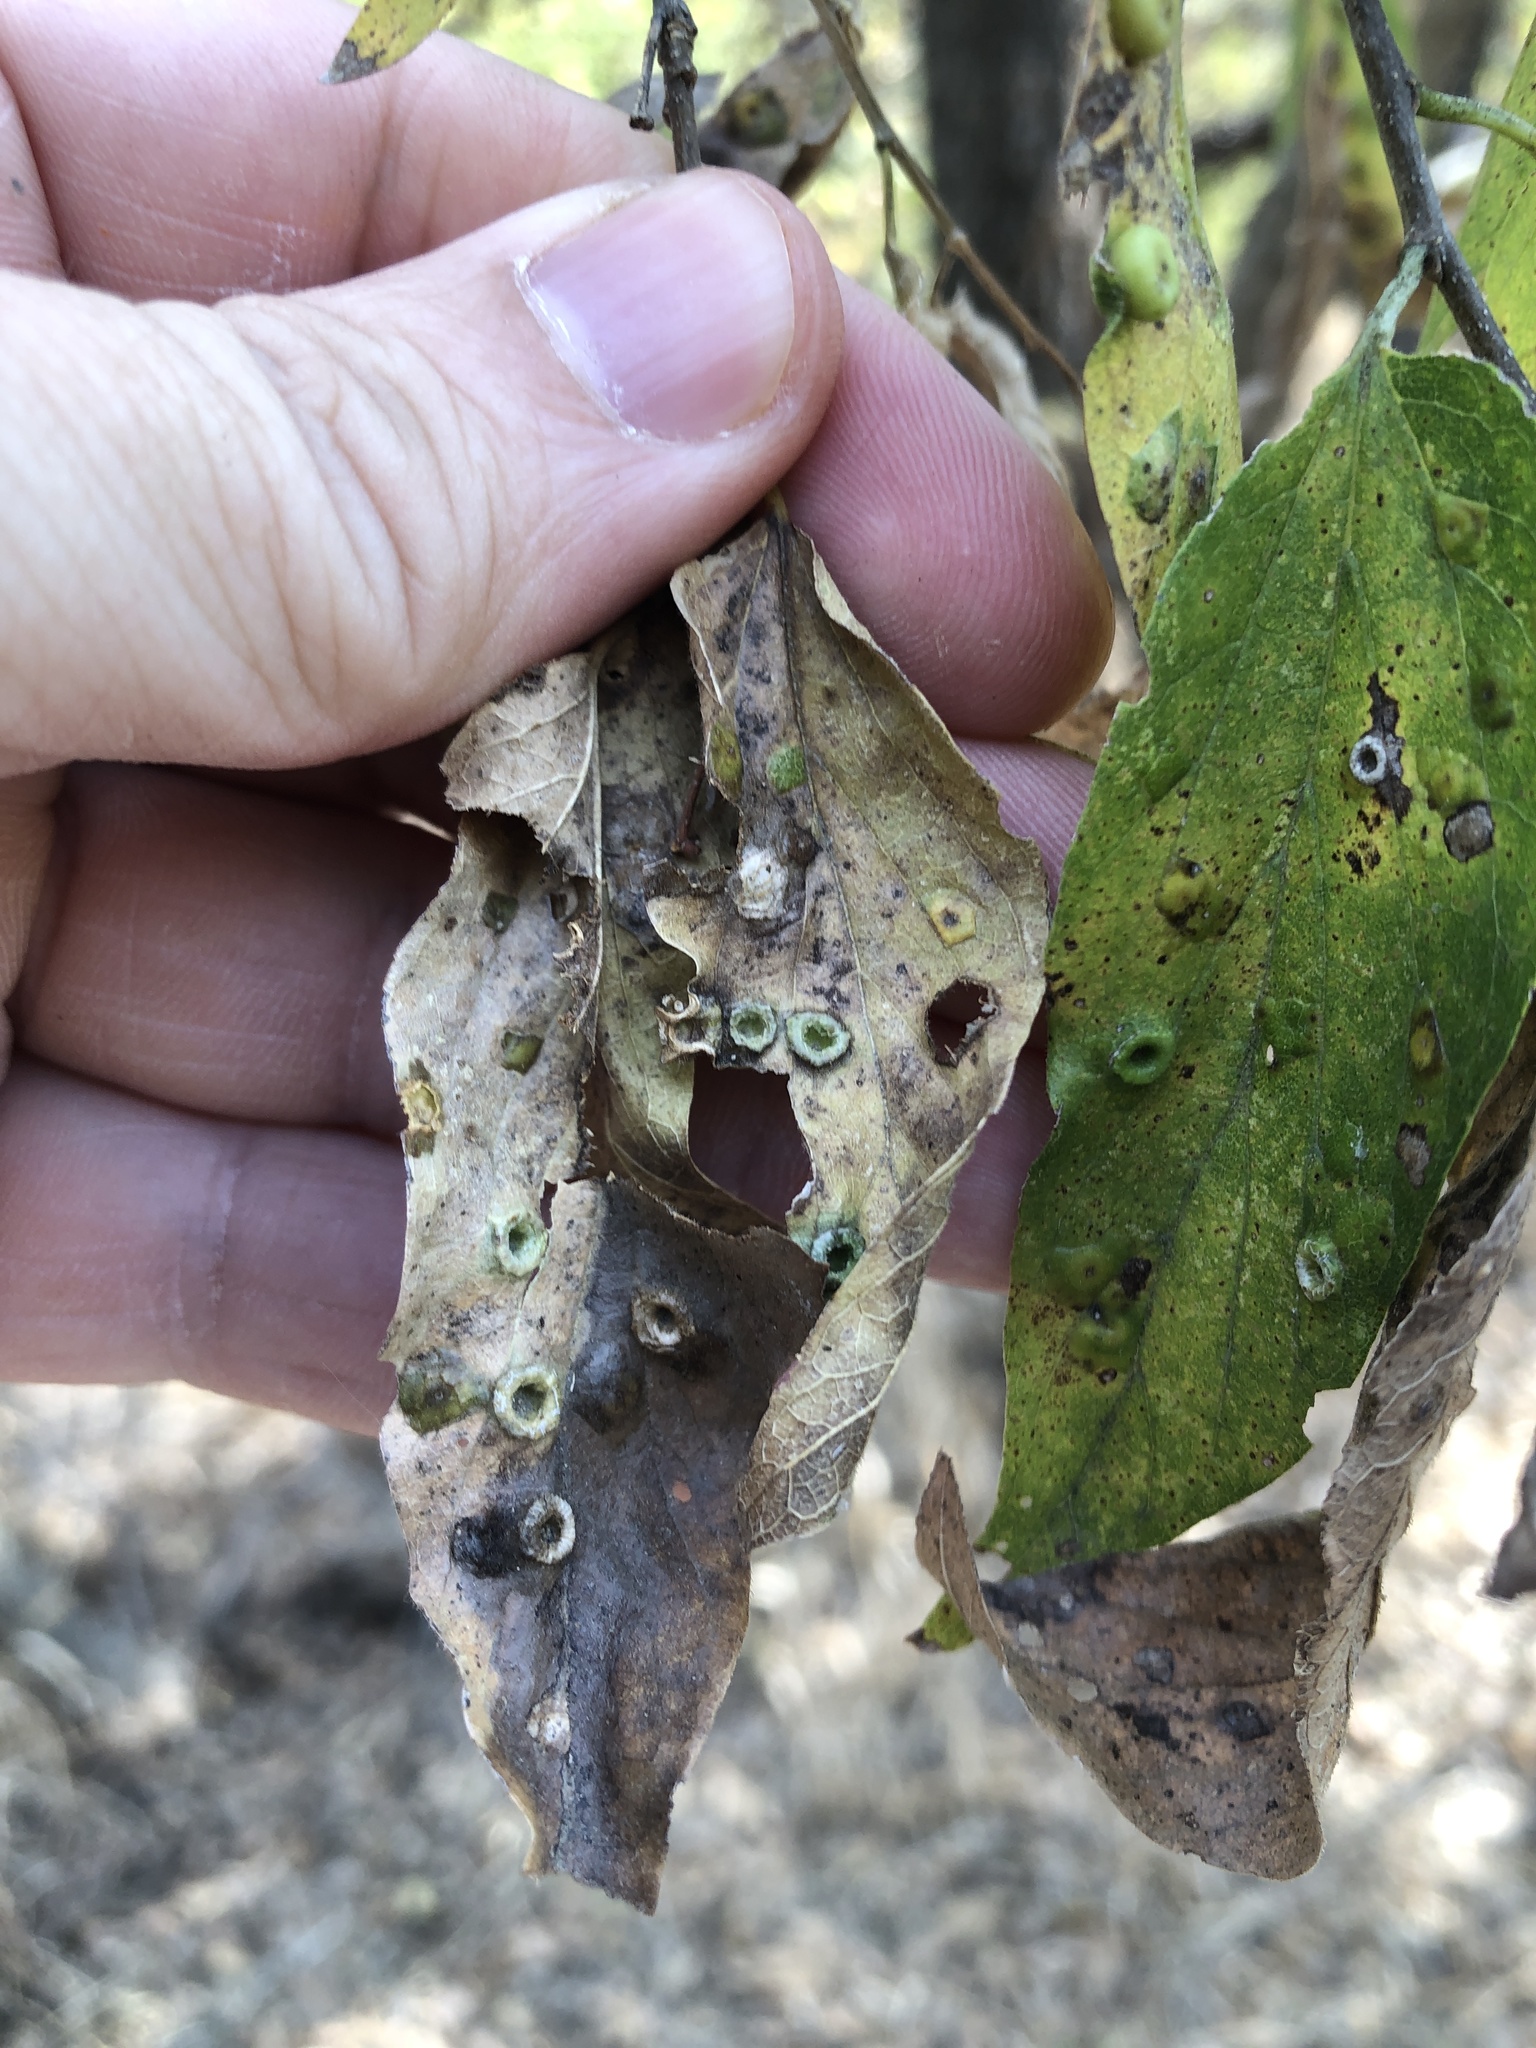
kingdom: Animalia
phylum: Arthropoda
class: Insecta
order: Hemiptera
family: Aphalaridae
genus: Pachypsylla
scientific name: Pachypsylla celtidismamma
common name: Hackberry nipplegall psyllid
